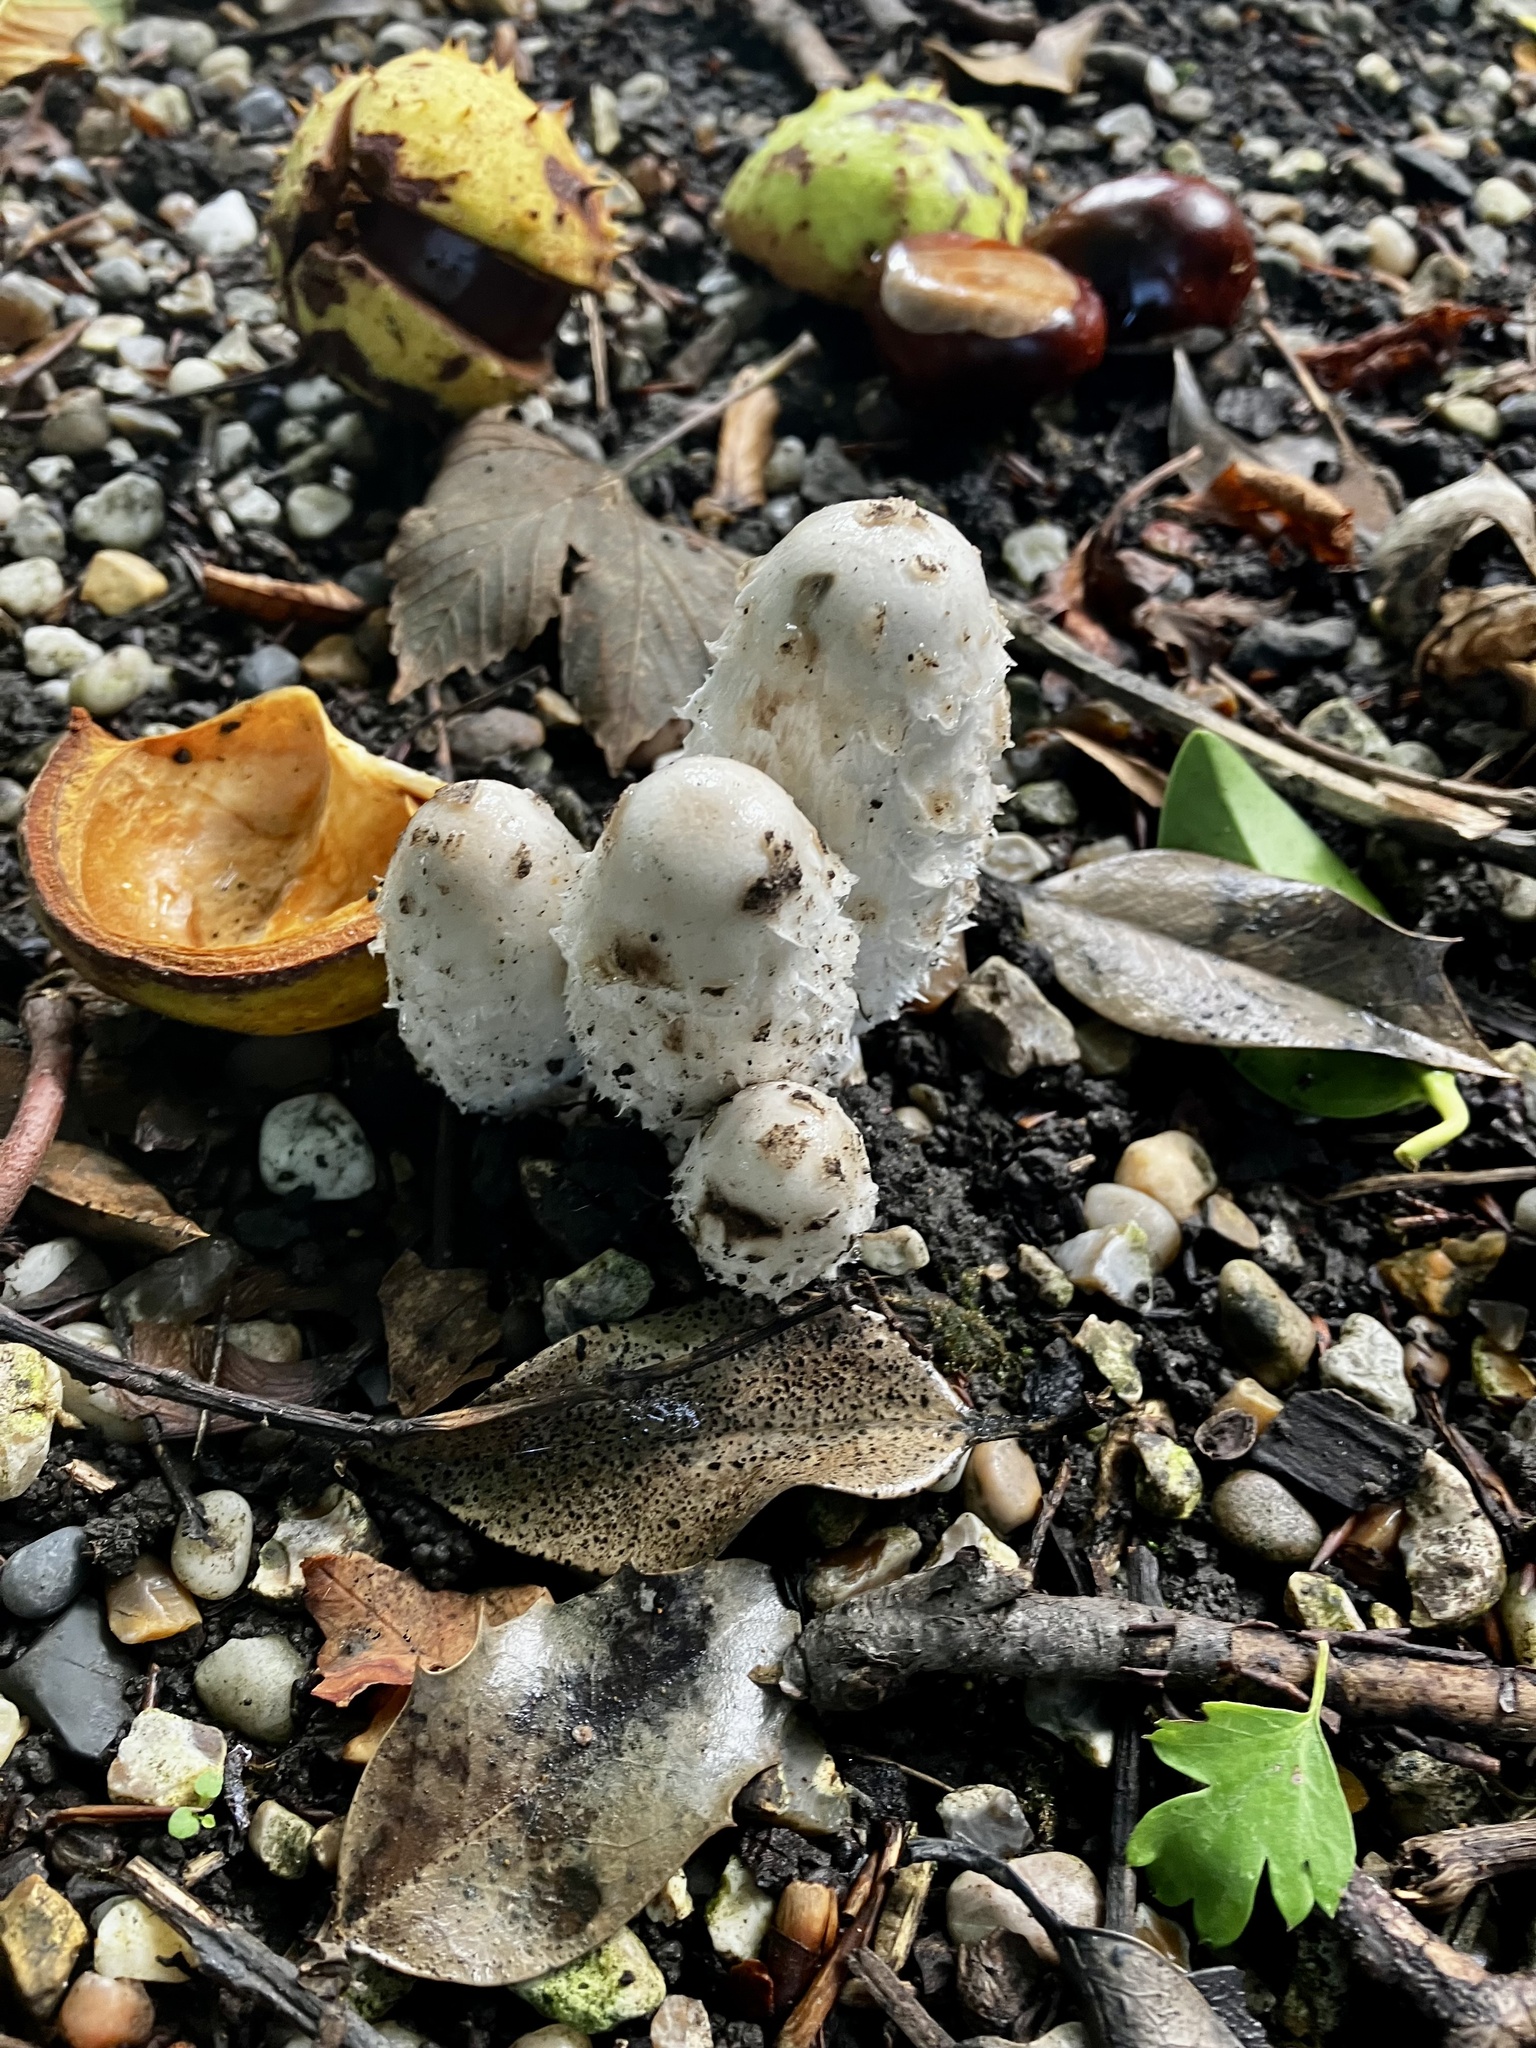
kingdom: Fungi
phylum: Basidiomycota
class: Agaricomycetes
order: Agaricales
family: Agaricaceae
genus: Coprinus
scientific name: Coprinus comatus
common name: Lawyer's wig
